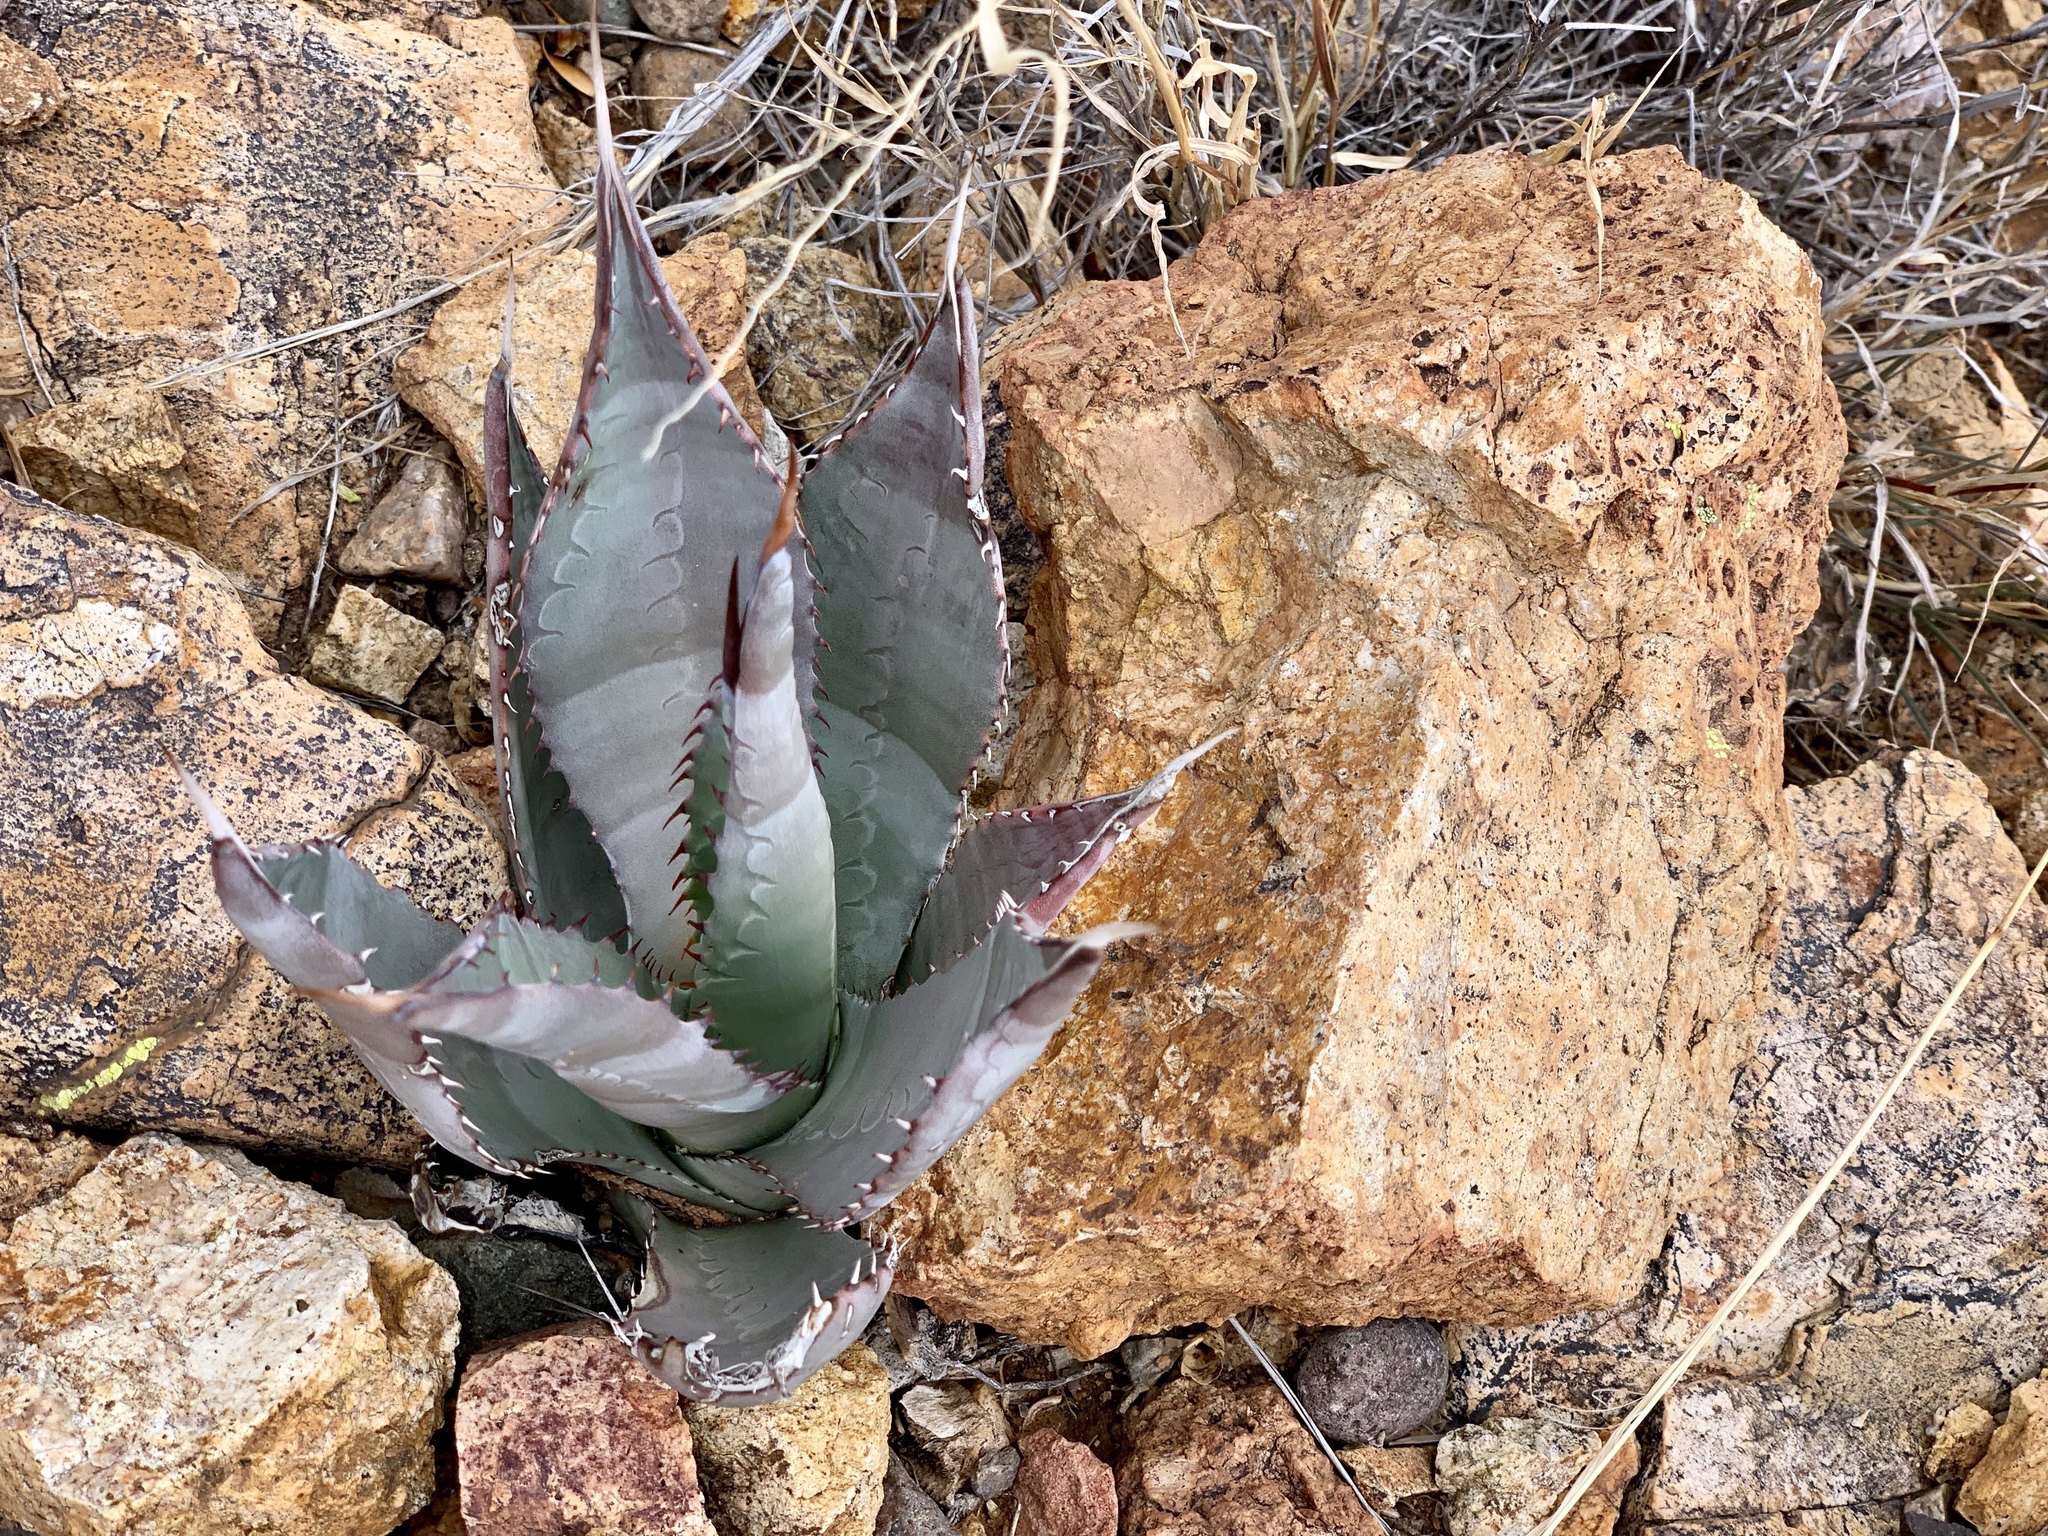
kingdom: Plantae
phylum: Tracheophyta
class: Liliopsida
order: Asparagales
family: Asparagaceae
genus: Agave
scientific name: Agave palmeri
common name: Palmer agave
